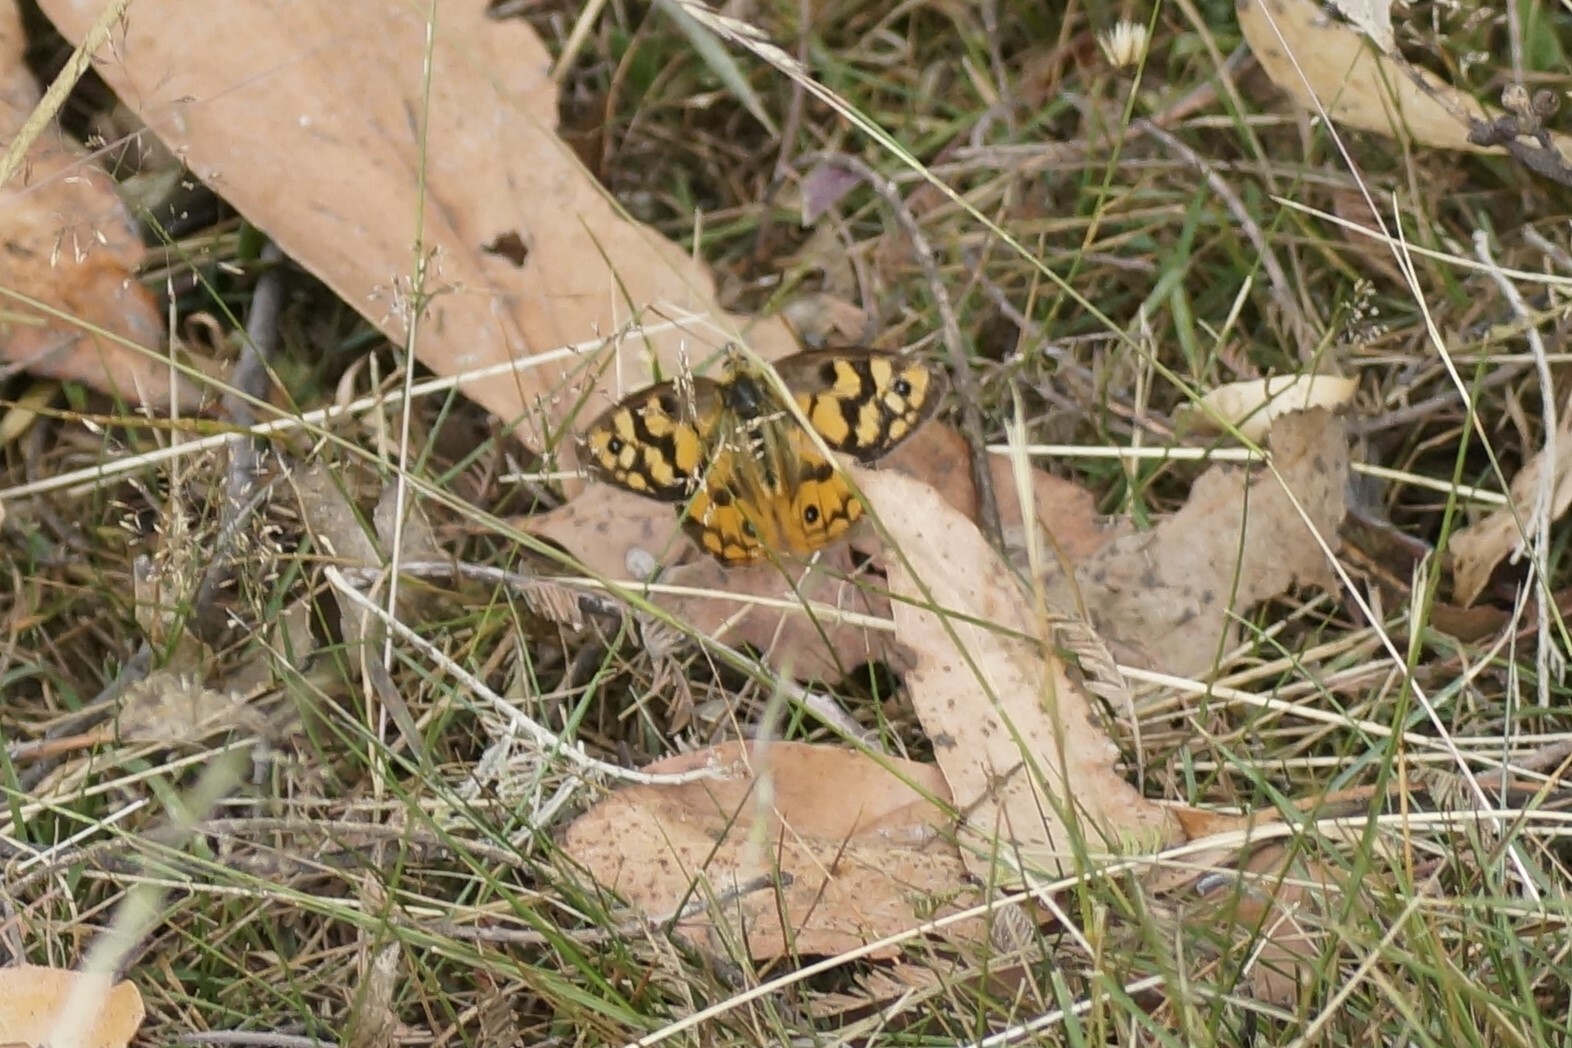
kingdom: Animalia
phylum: Arthropoda
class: Insecta
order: Lepidoptera
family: Nymphalidae
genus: Heteronympha
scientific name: Heteronympha penelope
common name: Shouldered brown
